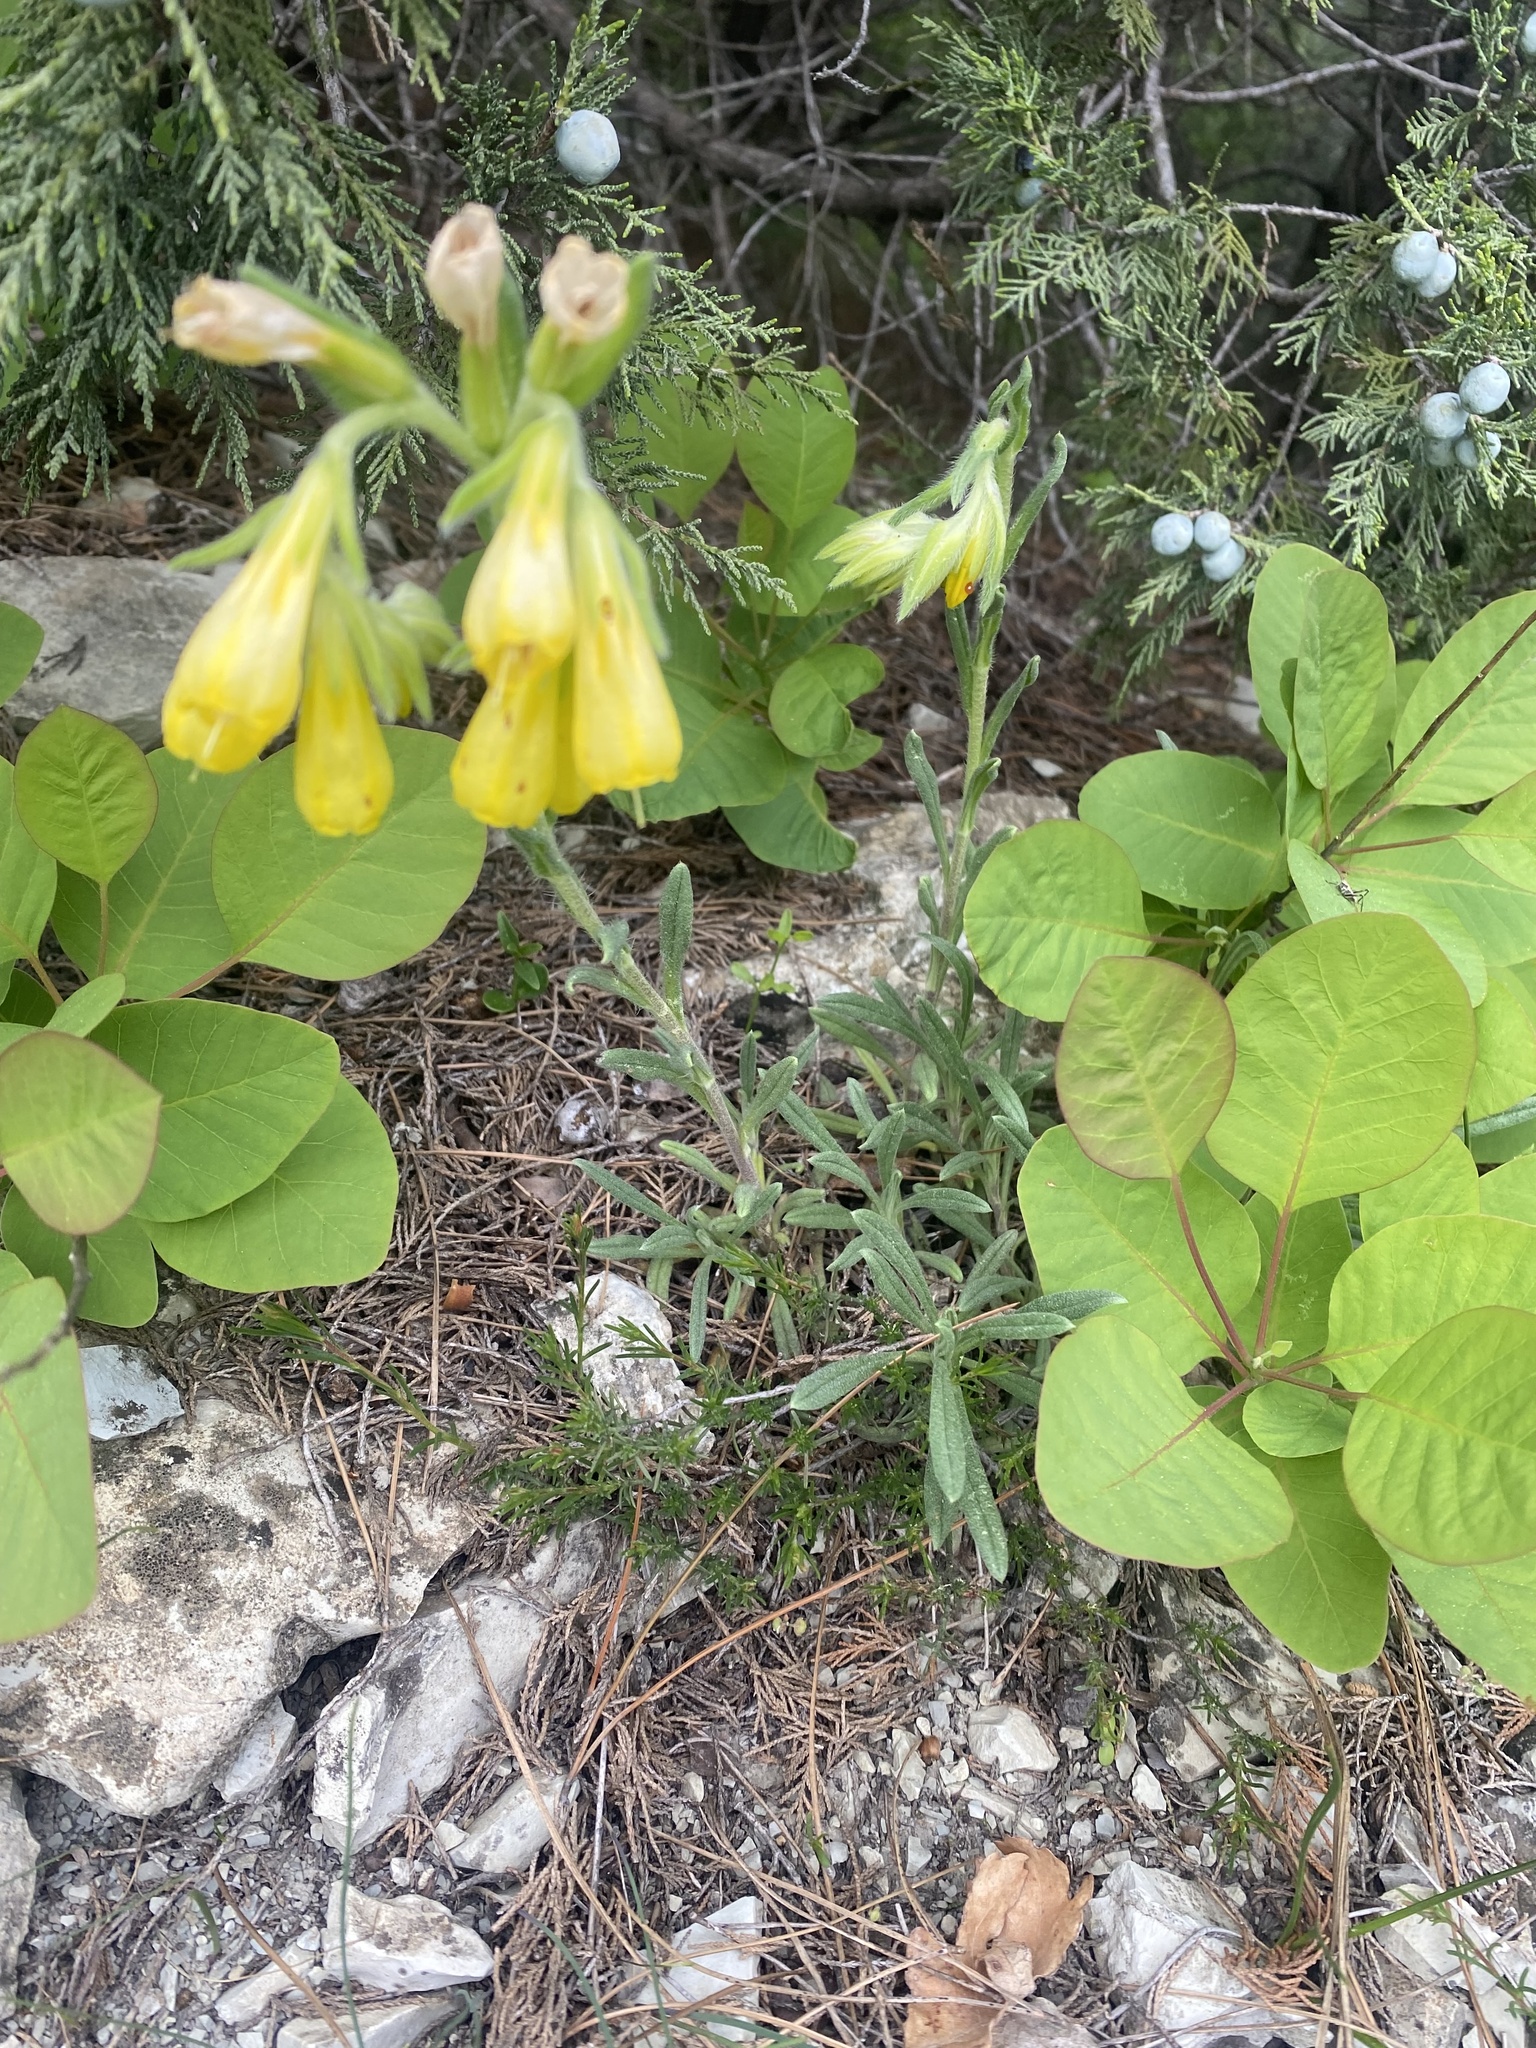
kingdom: Plantae
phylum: Tracheophyta
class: Magnoliopsida
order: Boraginales
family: Boraginaceae
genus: Onosma
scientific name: Onosma taurica
